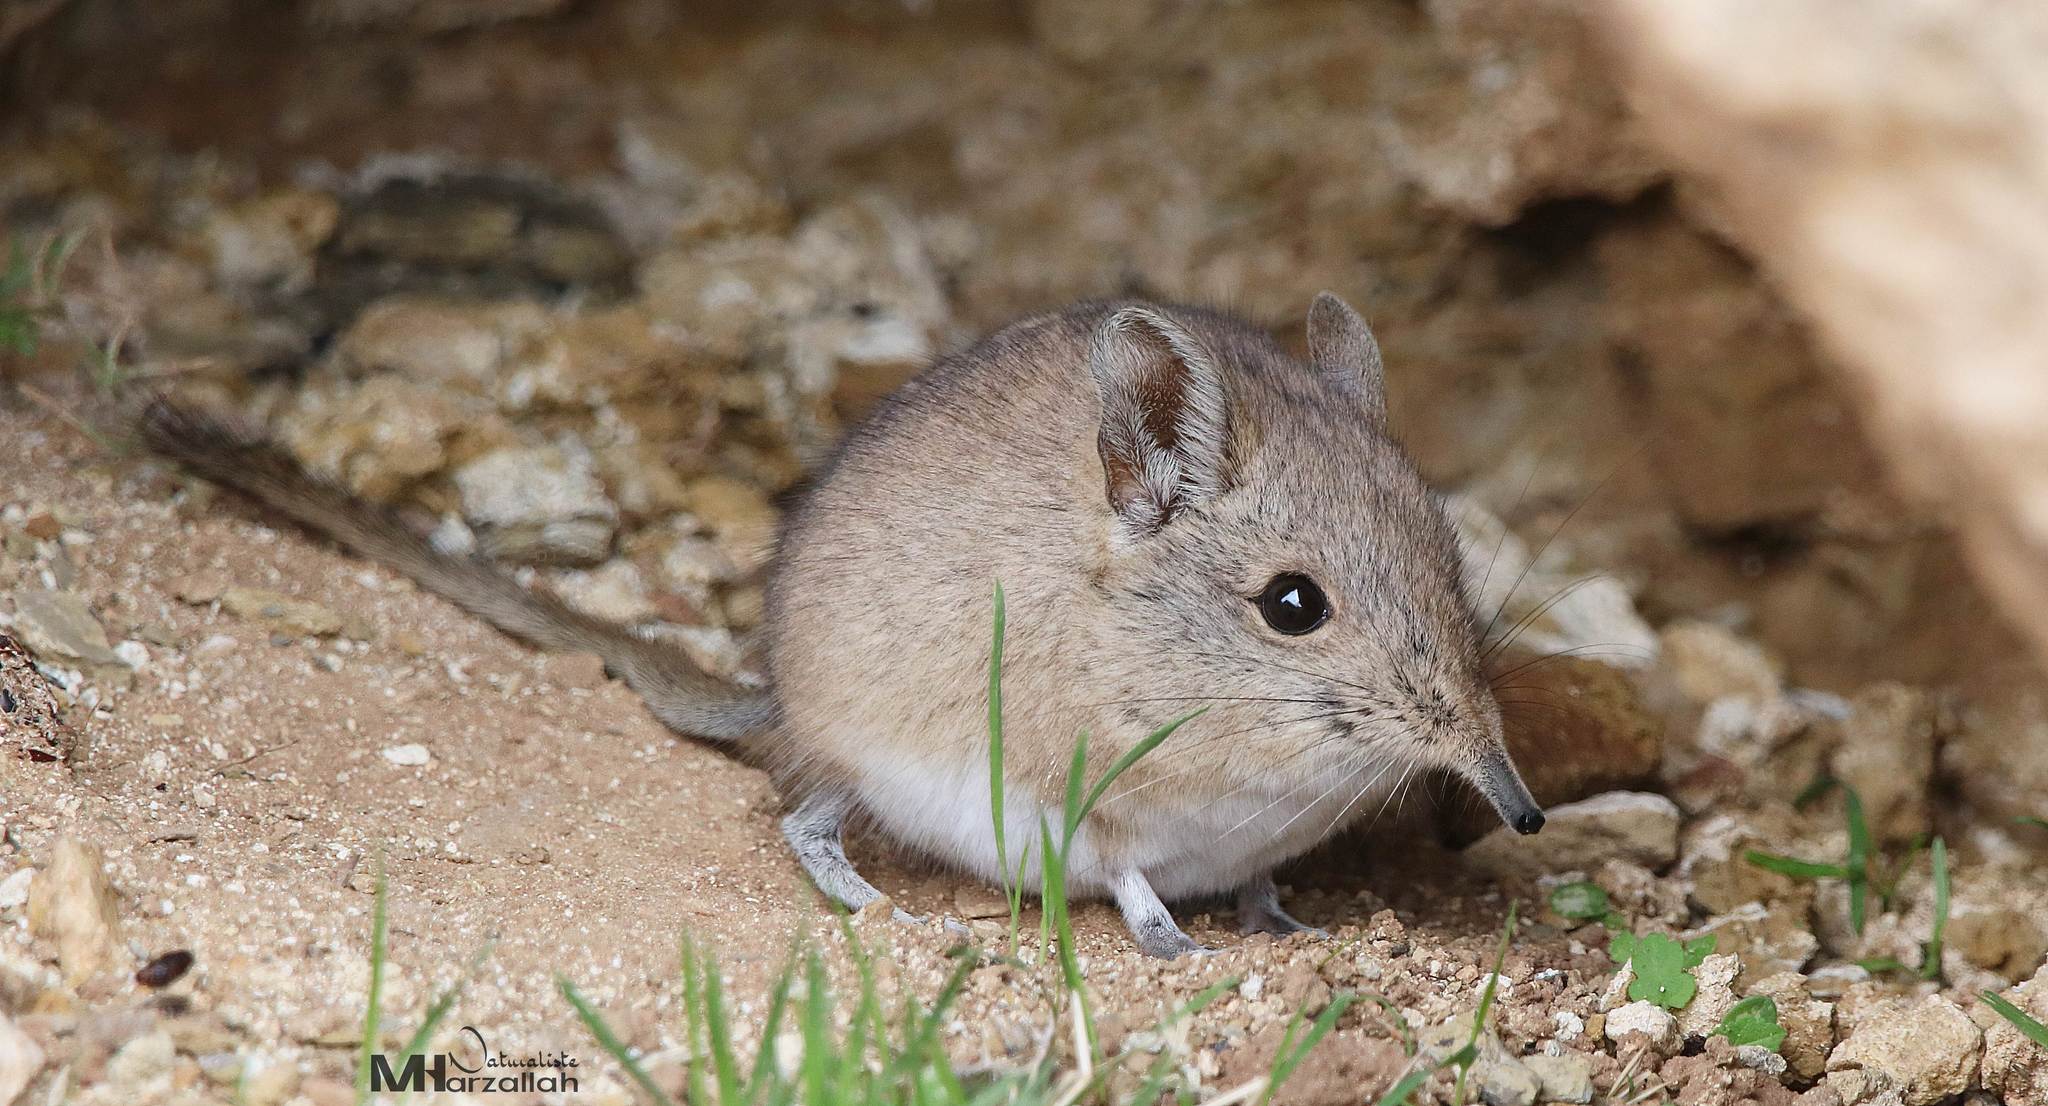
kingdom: Animalia
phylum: Chordata
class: Mammalia
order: Macroscelidea
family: Macroscelididae
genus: Elephantulus
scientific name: Elephantulus rozeti
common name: North african elephant shrew
